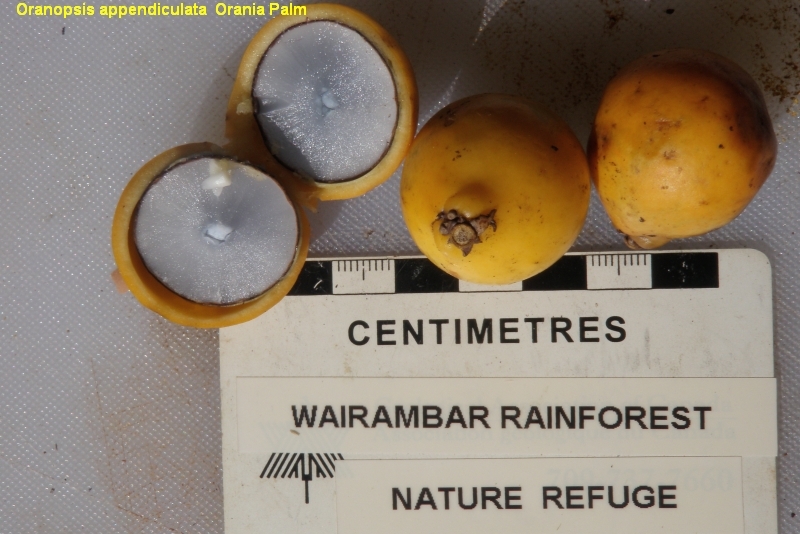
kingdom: Plantae
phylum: Tracheophyta
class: Liliopsida
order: Arecales
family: Arecaceae
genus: Oraniopsis
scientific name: Oraniopsis appendiculata
